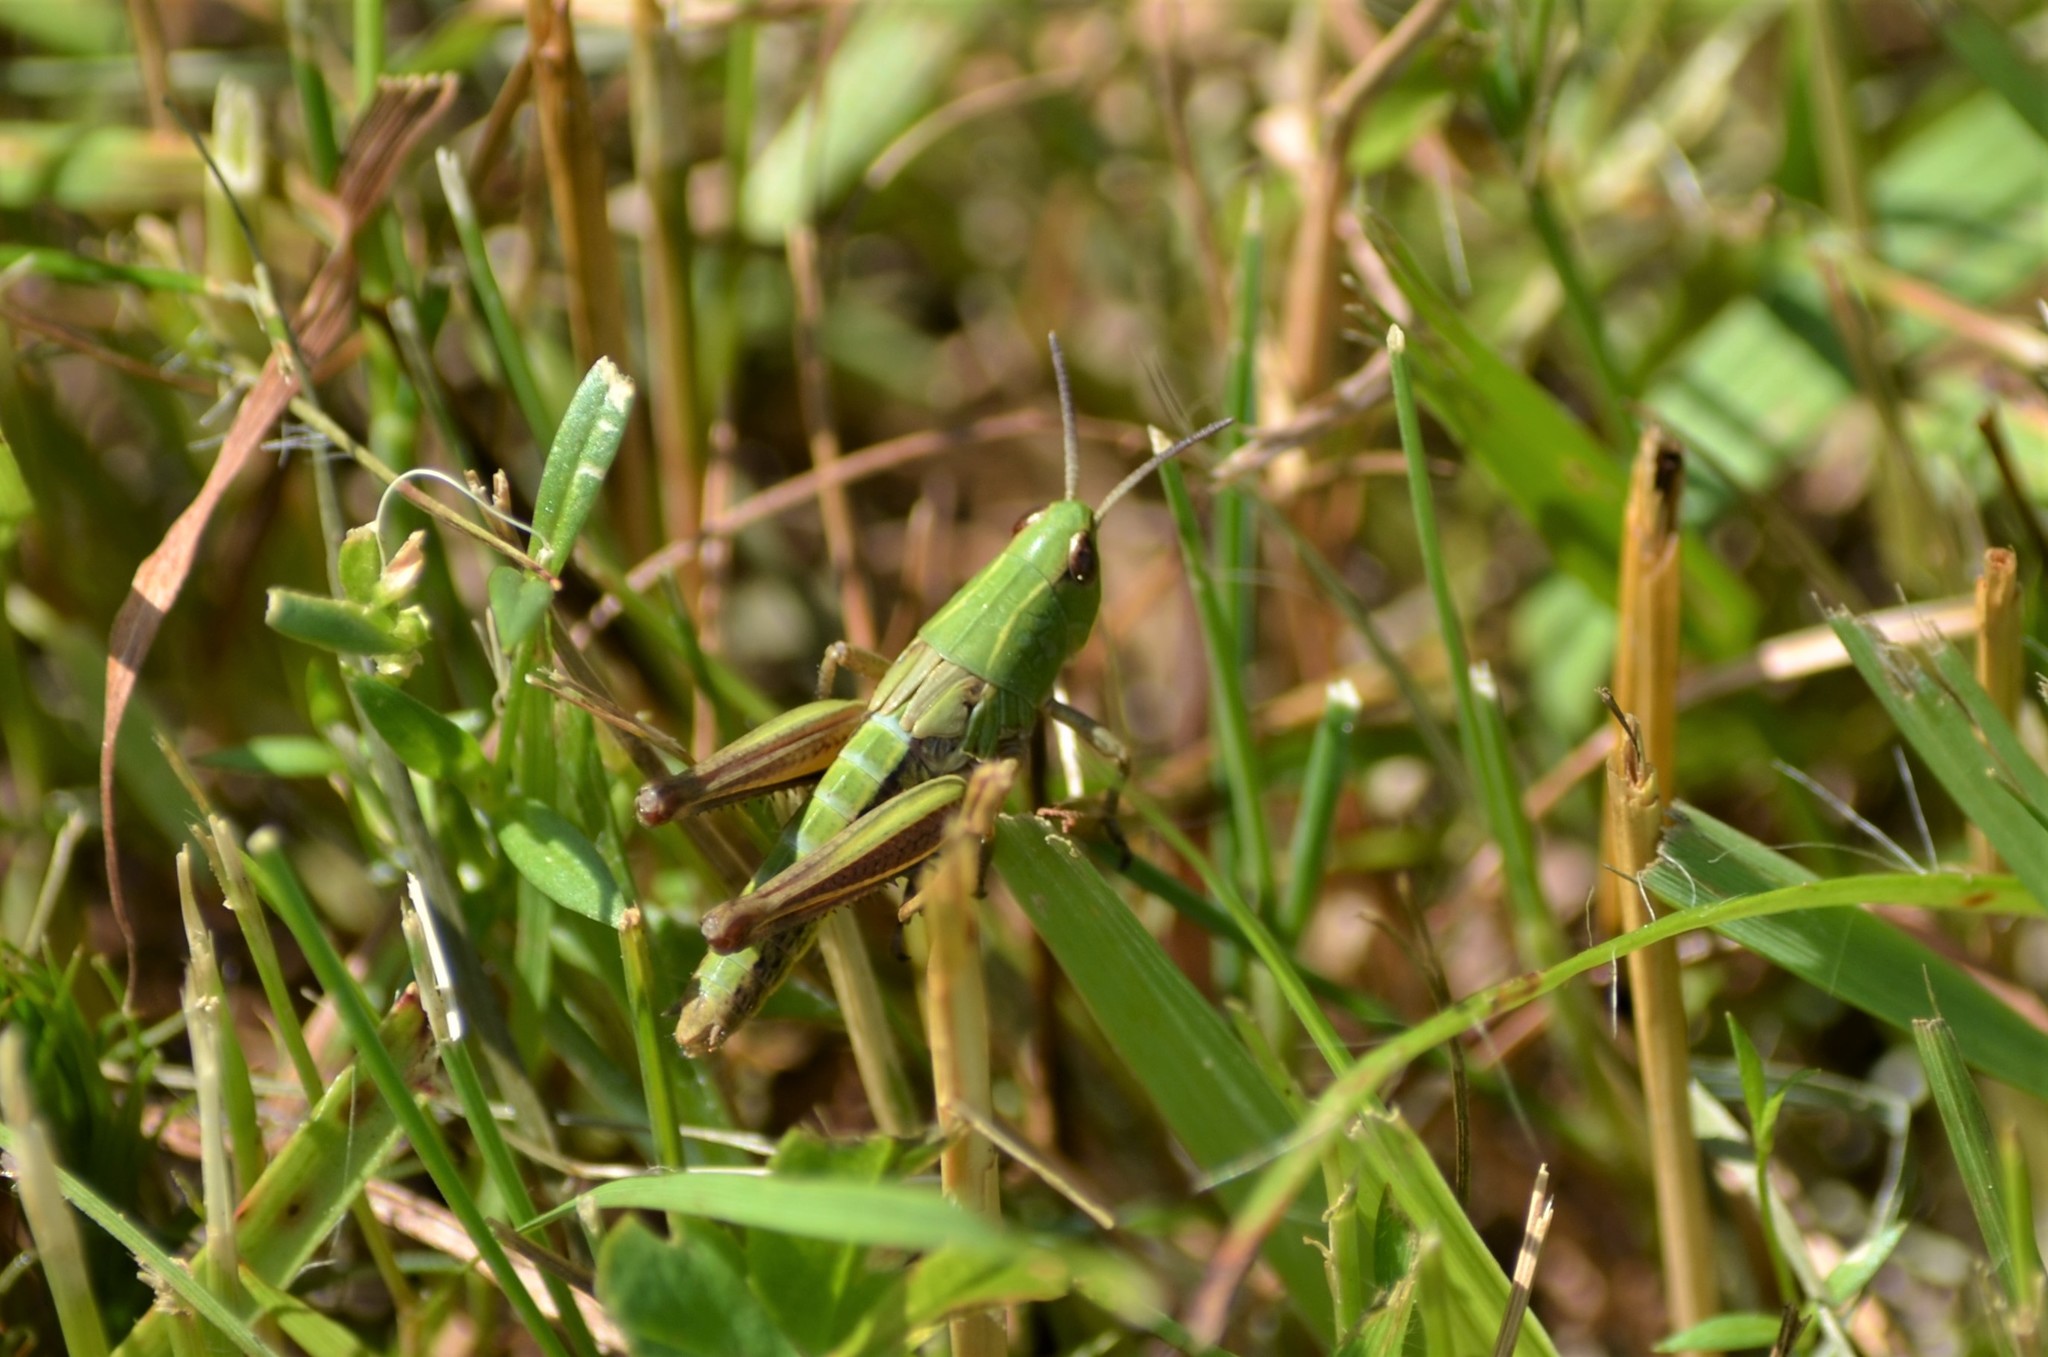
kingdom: Animalia
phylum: Arthropoda
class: Insecta
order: Orthoptera
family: Acrididae
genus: Omocestus
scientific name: Omocestus viridulus
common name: Common green grasshopper
